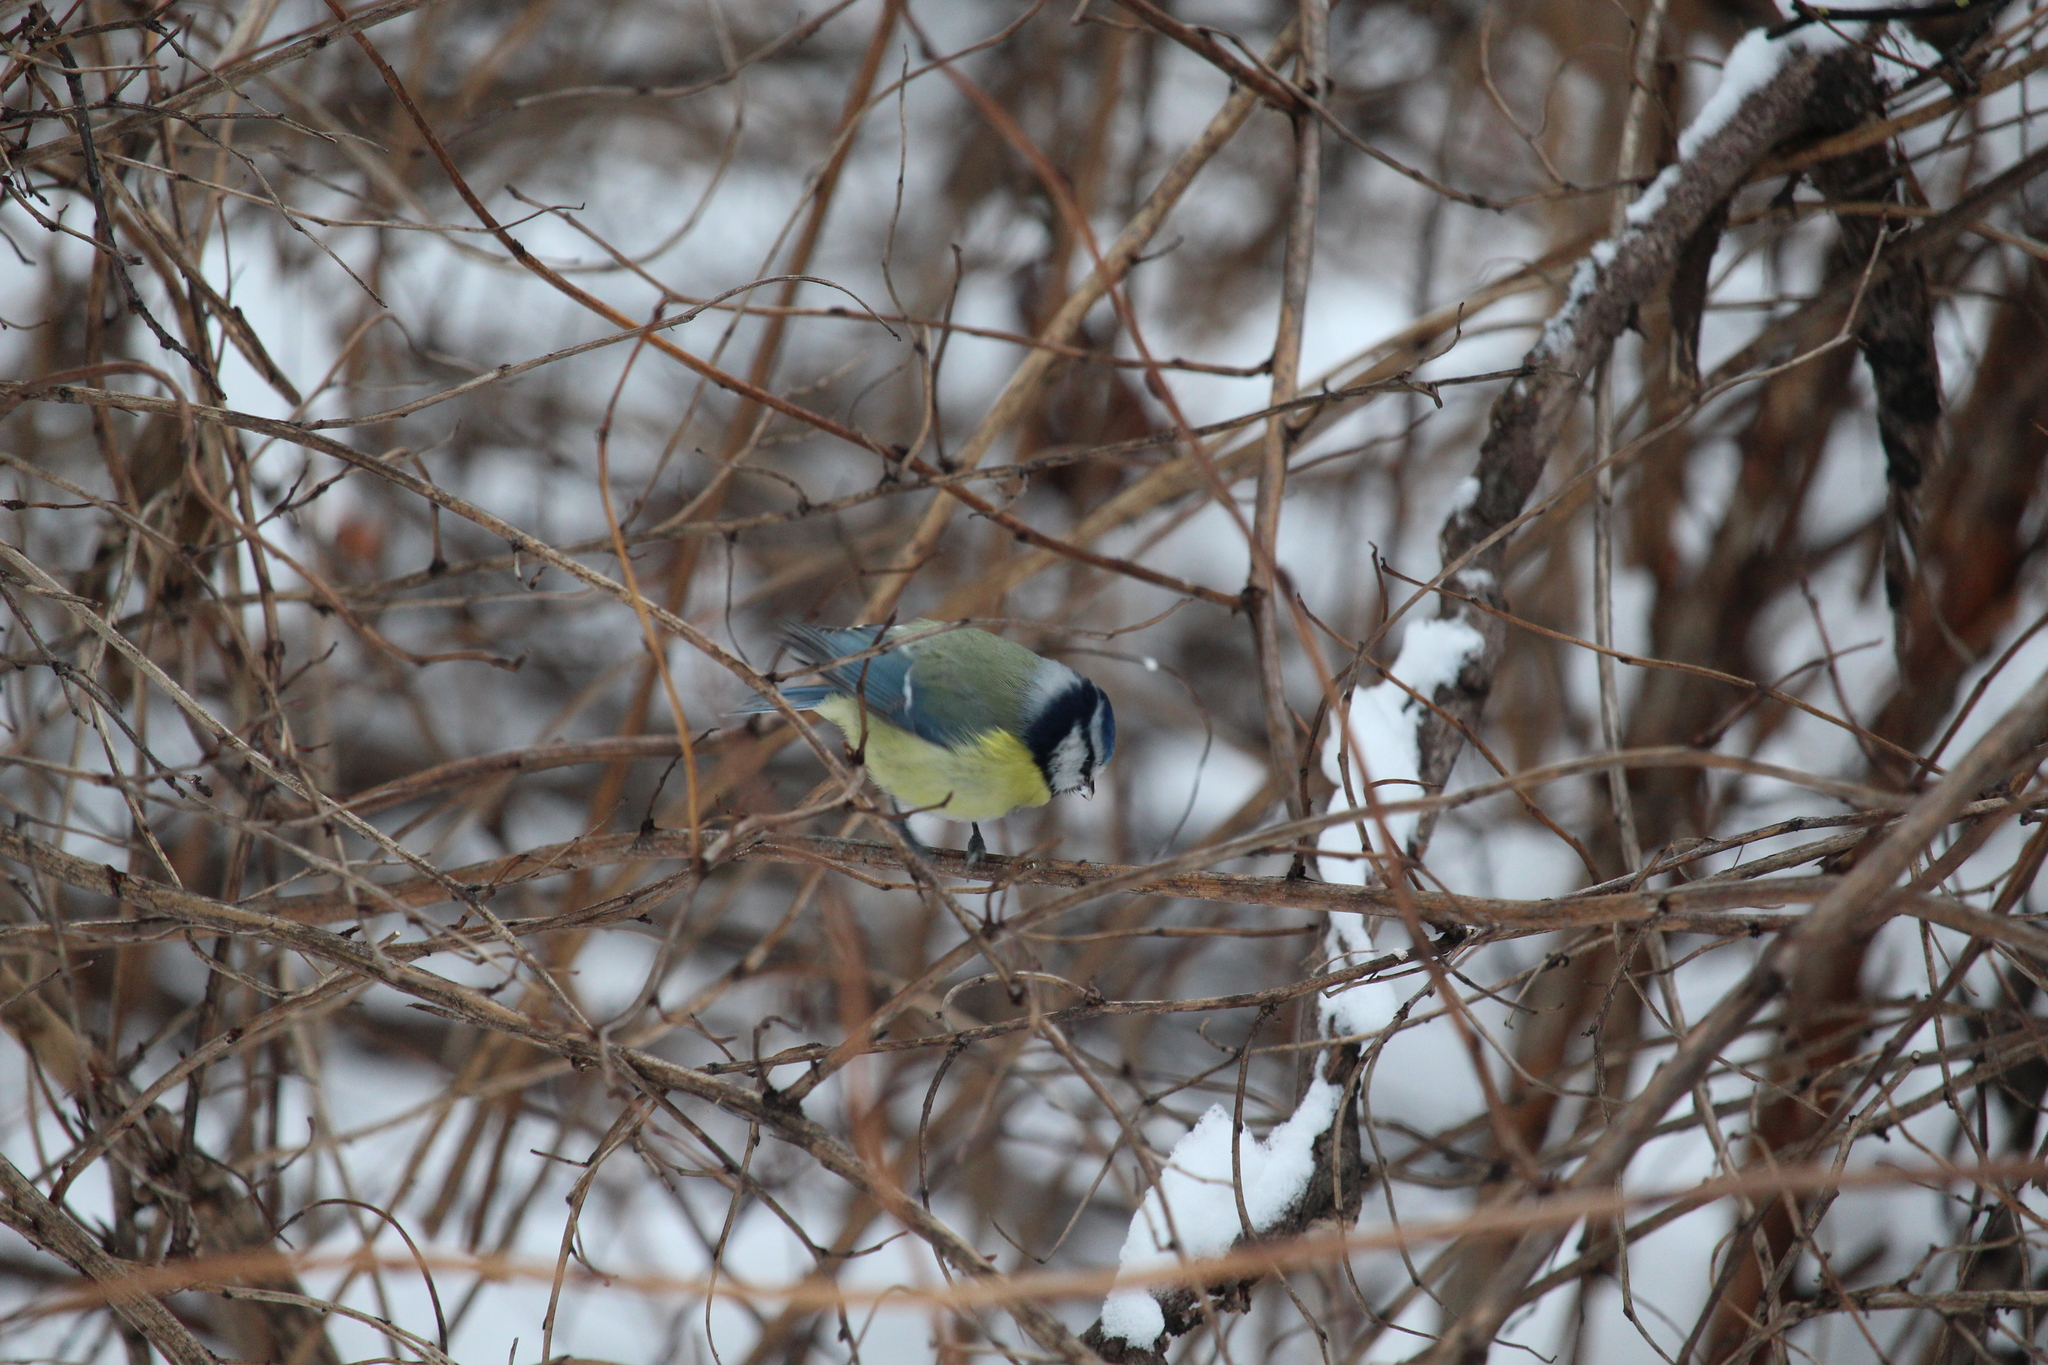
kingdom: Animalia
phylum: Chordata
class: Aves
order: Passeriformes
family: Paridae
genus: Cyanistes
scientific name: Cyanistes caeruleus
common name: Eurasian blue tit
